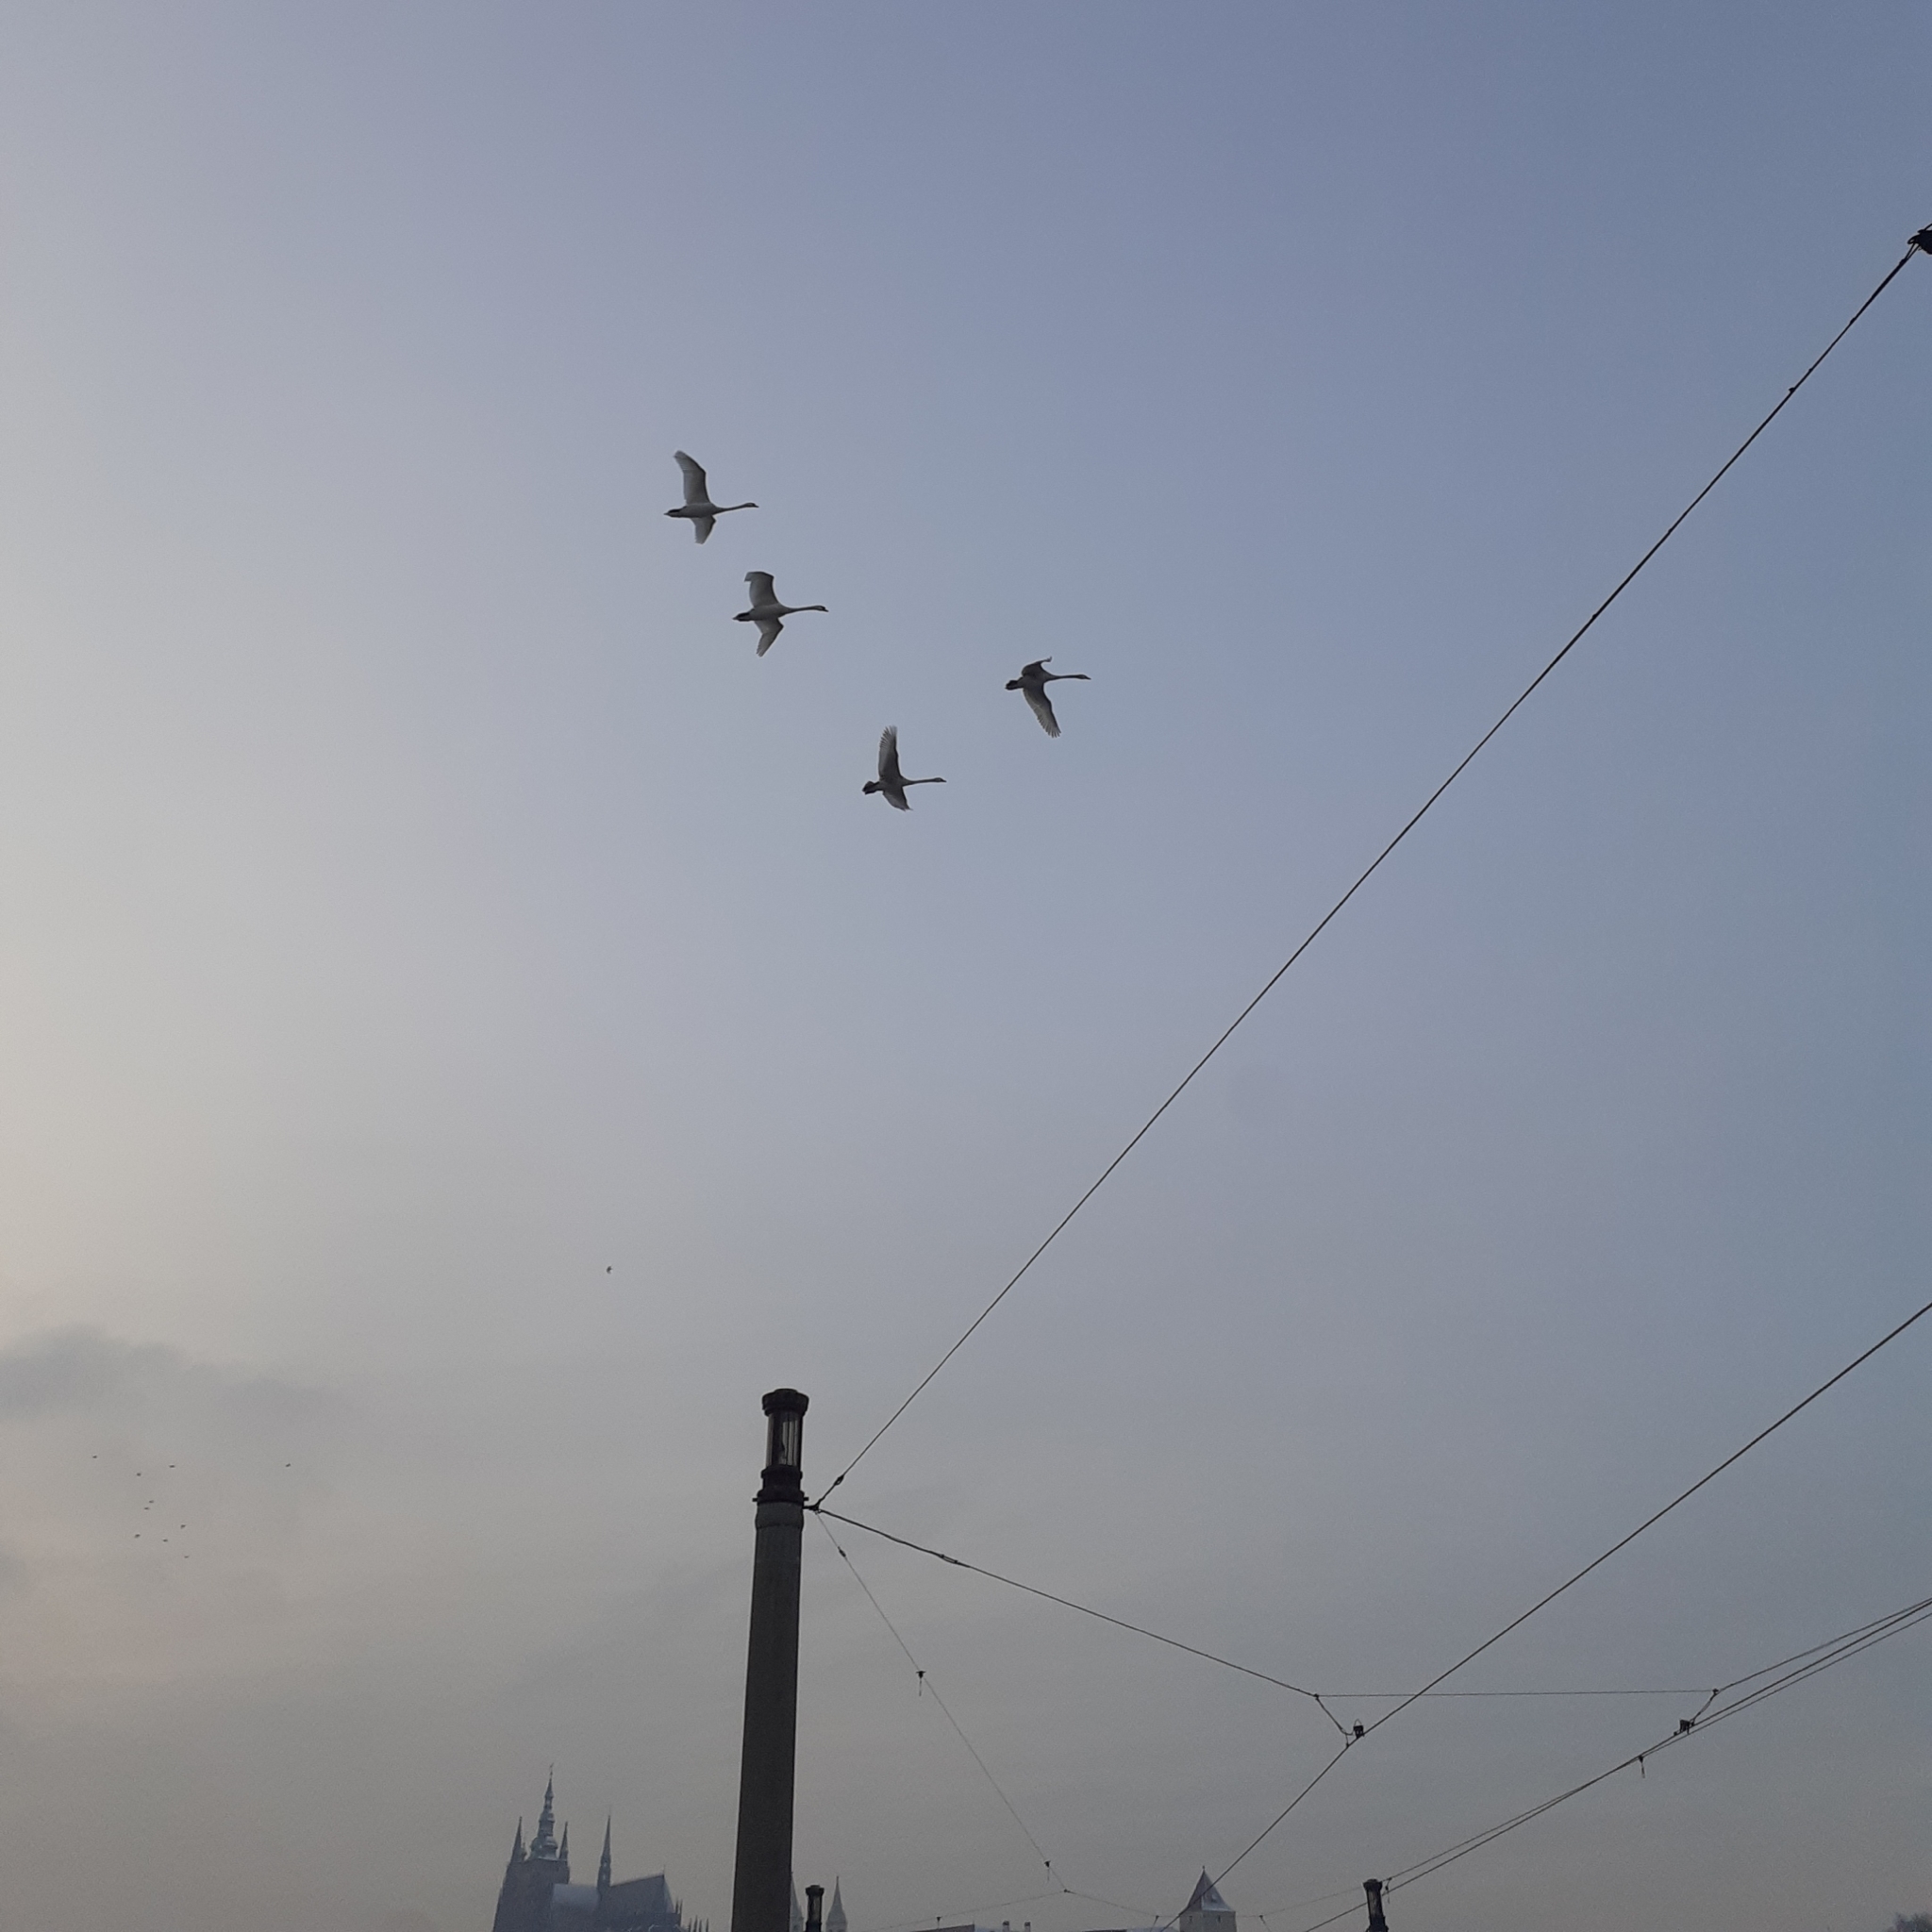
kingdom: Animalia
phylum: Chordata
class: Aves
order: Anseriformes
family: Anatidae
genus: Cygnus
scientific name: Cygnus olor
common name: Mute swan
